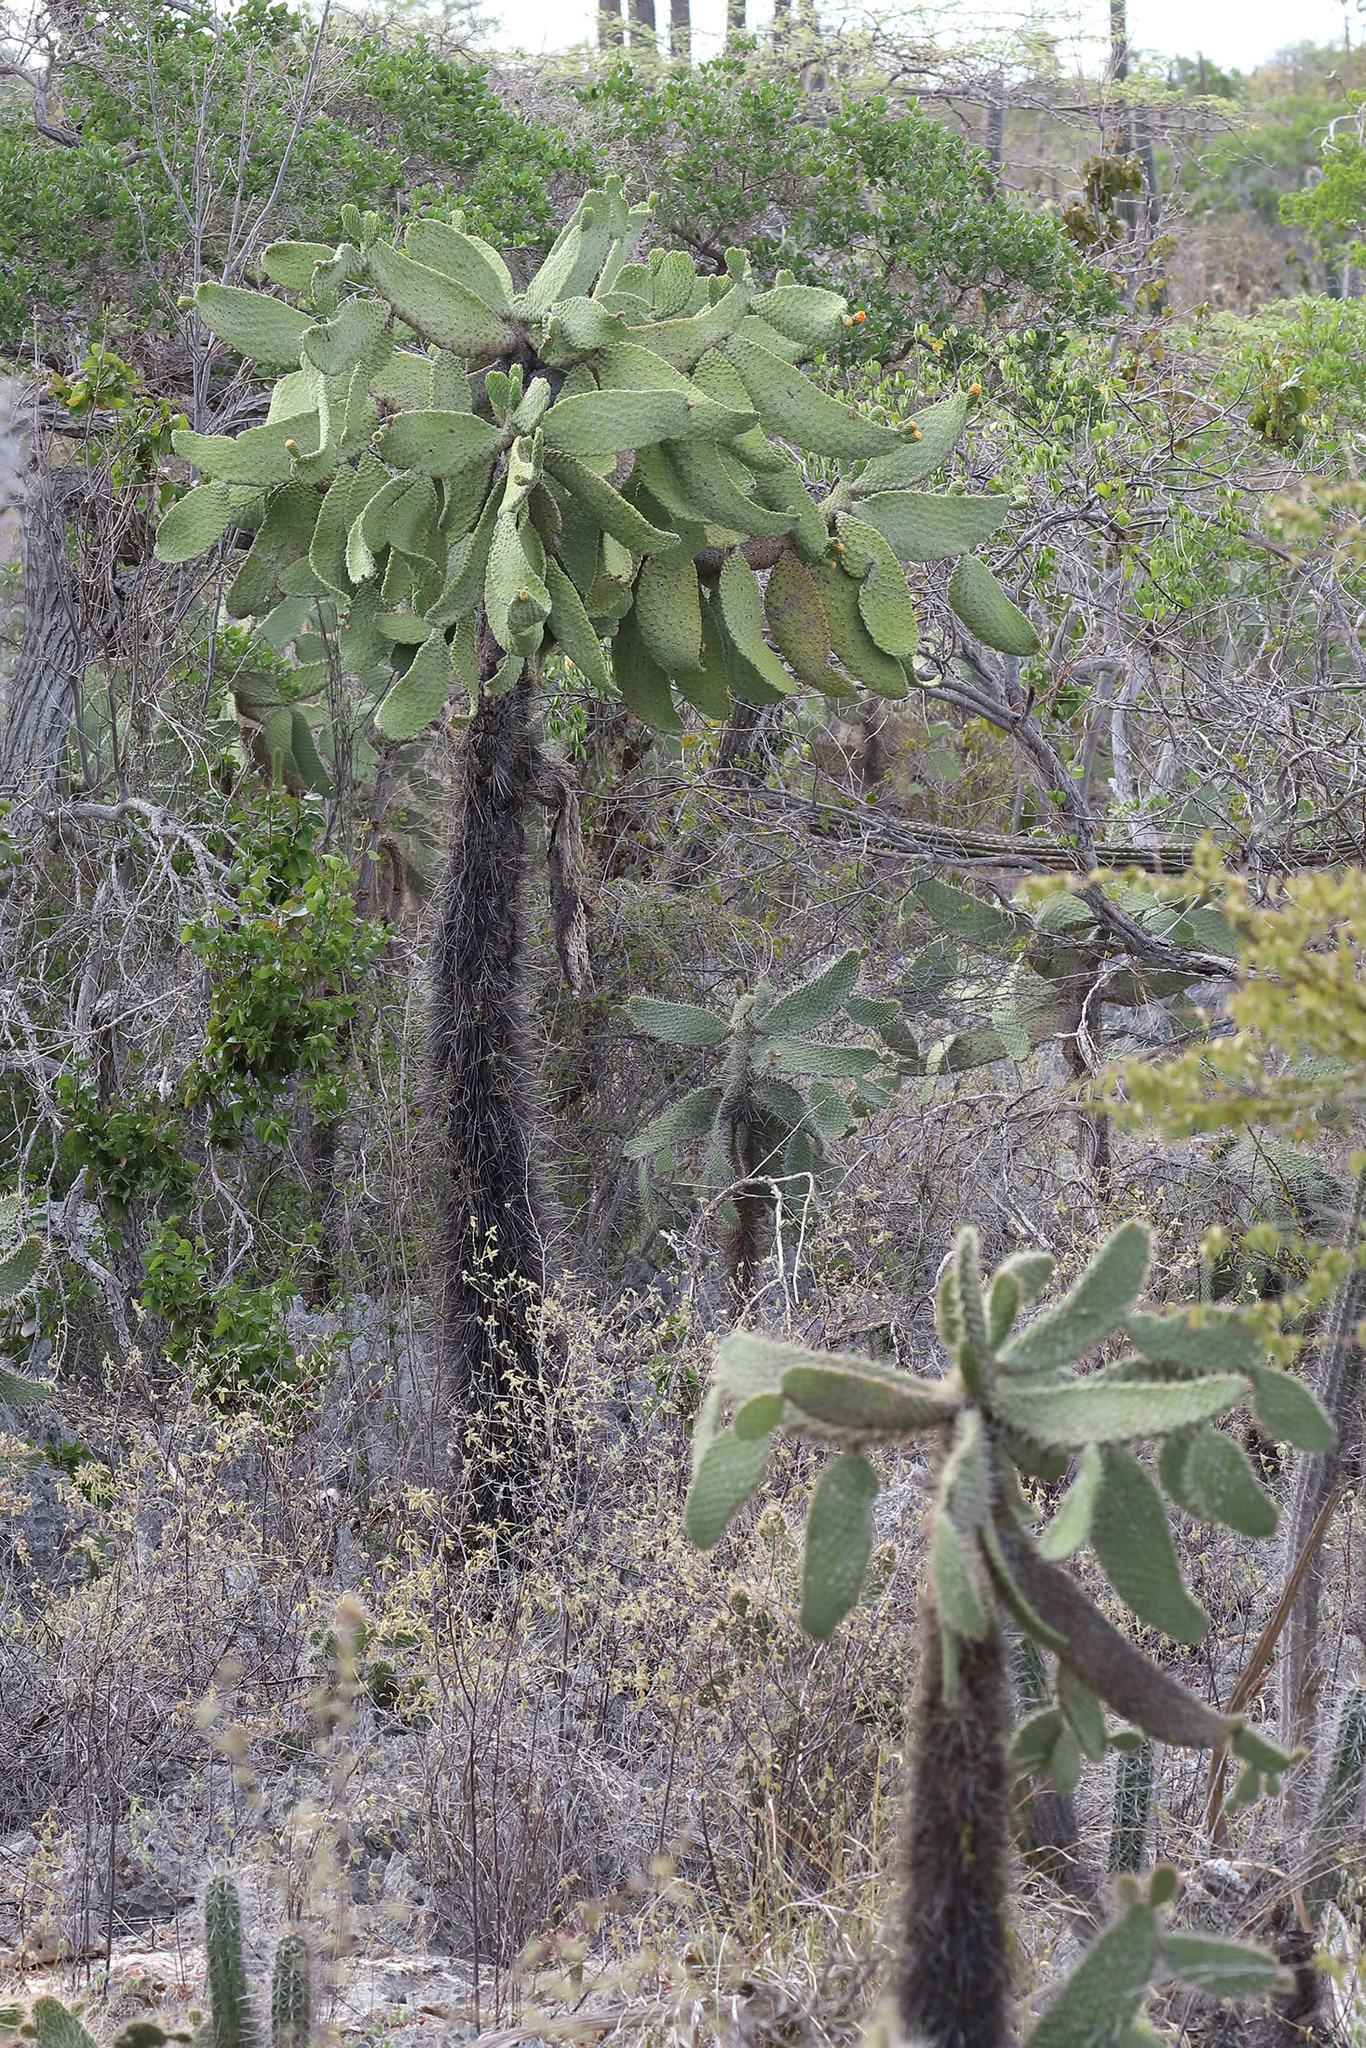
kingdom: Plantae
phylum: Tracheophyta
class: Magnoliopsida
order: Caryophyllales
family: Cactaceae
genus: Consolea
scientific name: Consolea moniliformis
